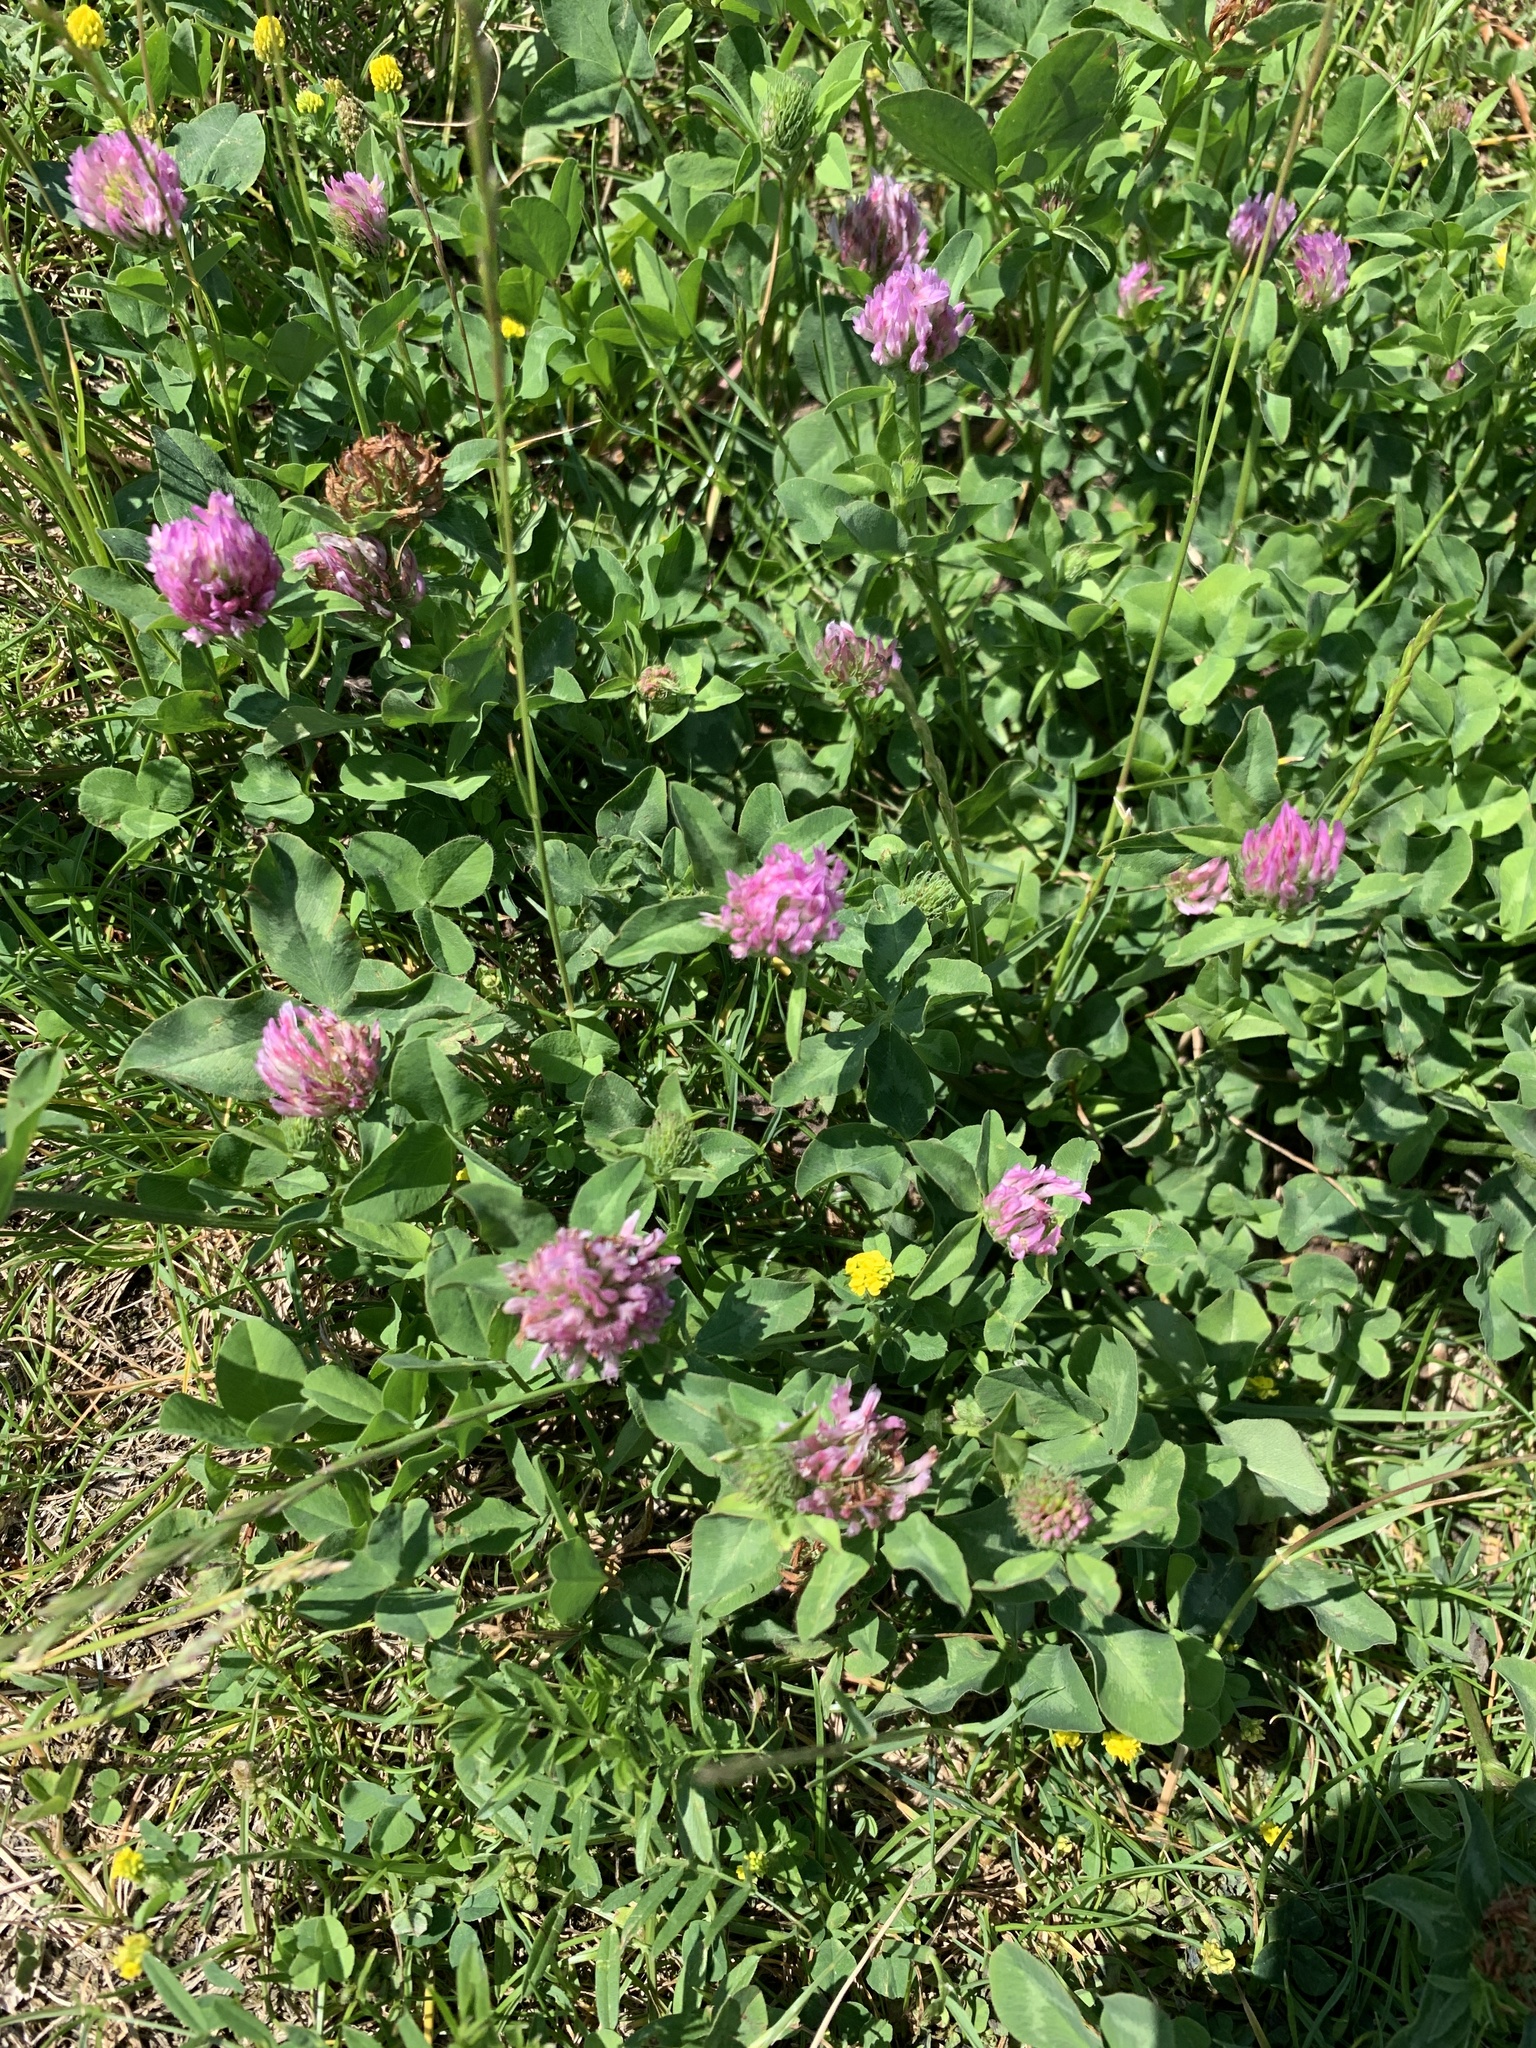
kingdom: Plantae
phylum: Tracheophyta
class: Magnoliopsida
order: Fabales
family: Fabaceae
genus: Trifolium
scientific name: Trifolium pratense
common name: Red clover
